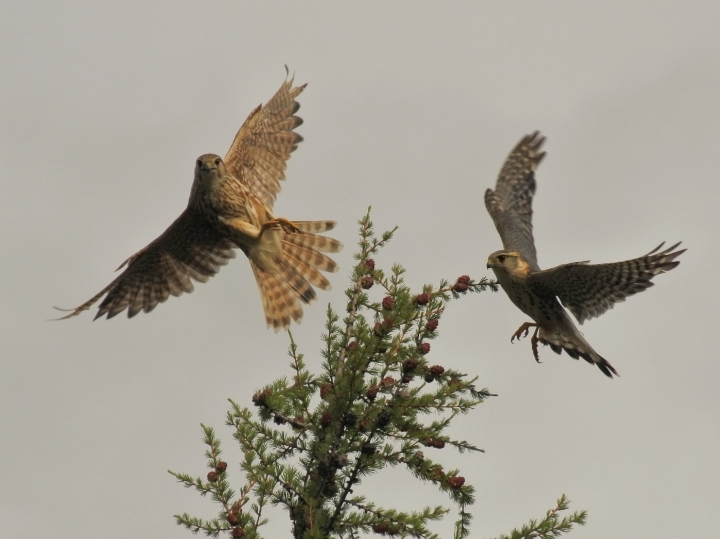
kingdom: Animalia
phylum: Chordata
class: Aves
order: Falconiformes
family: Falconidae
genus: Falco
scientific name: Falco columbarius
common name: Merlin
